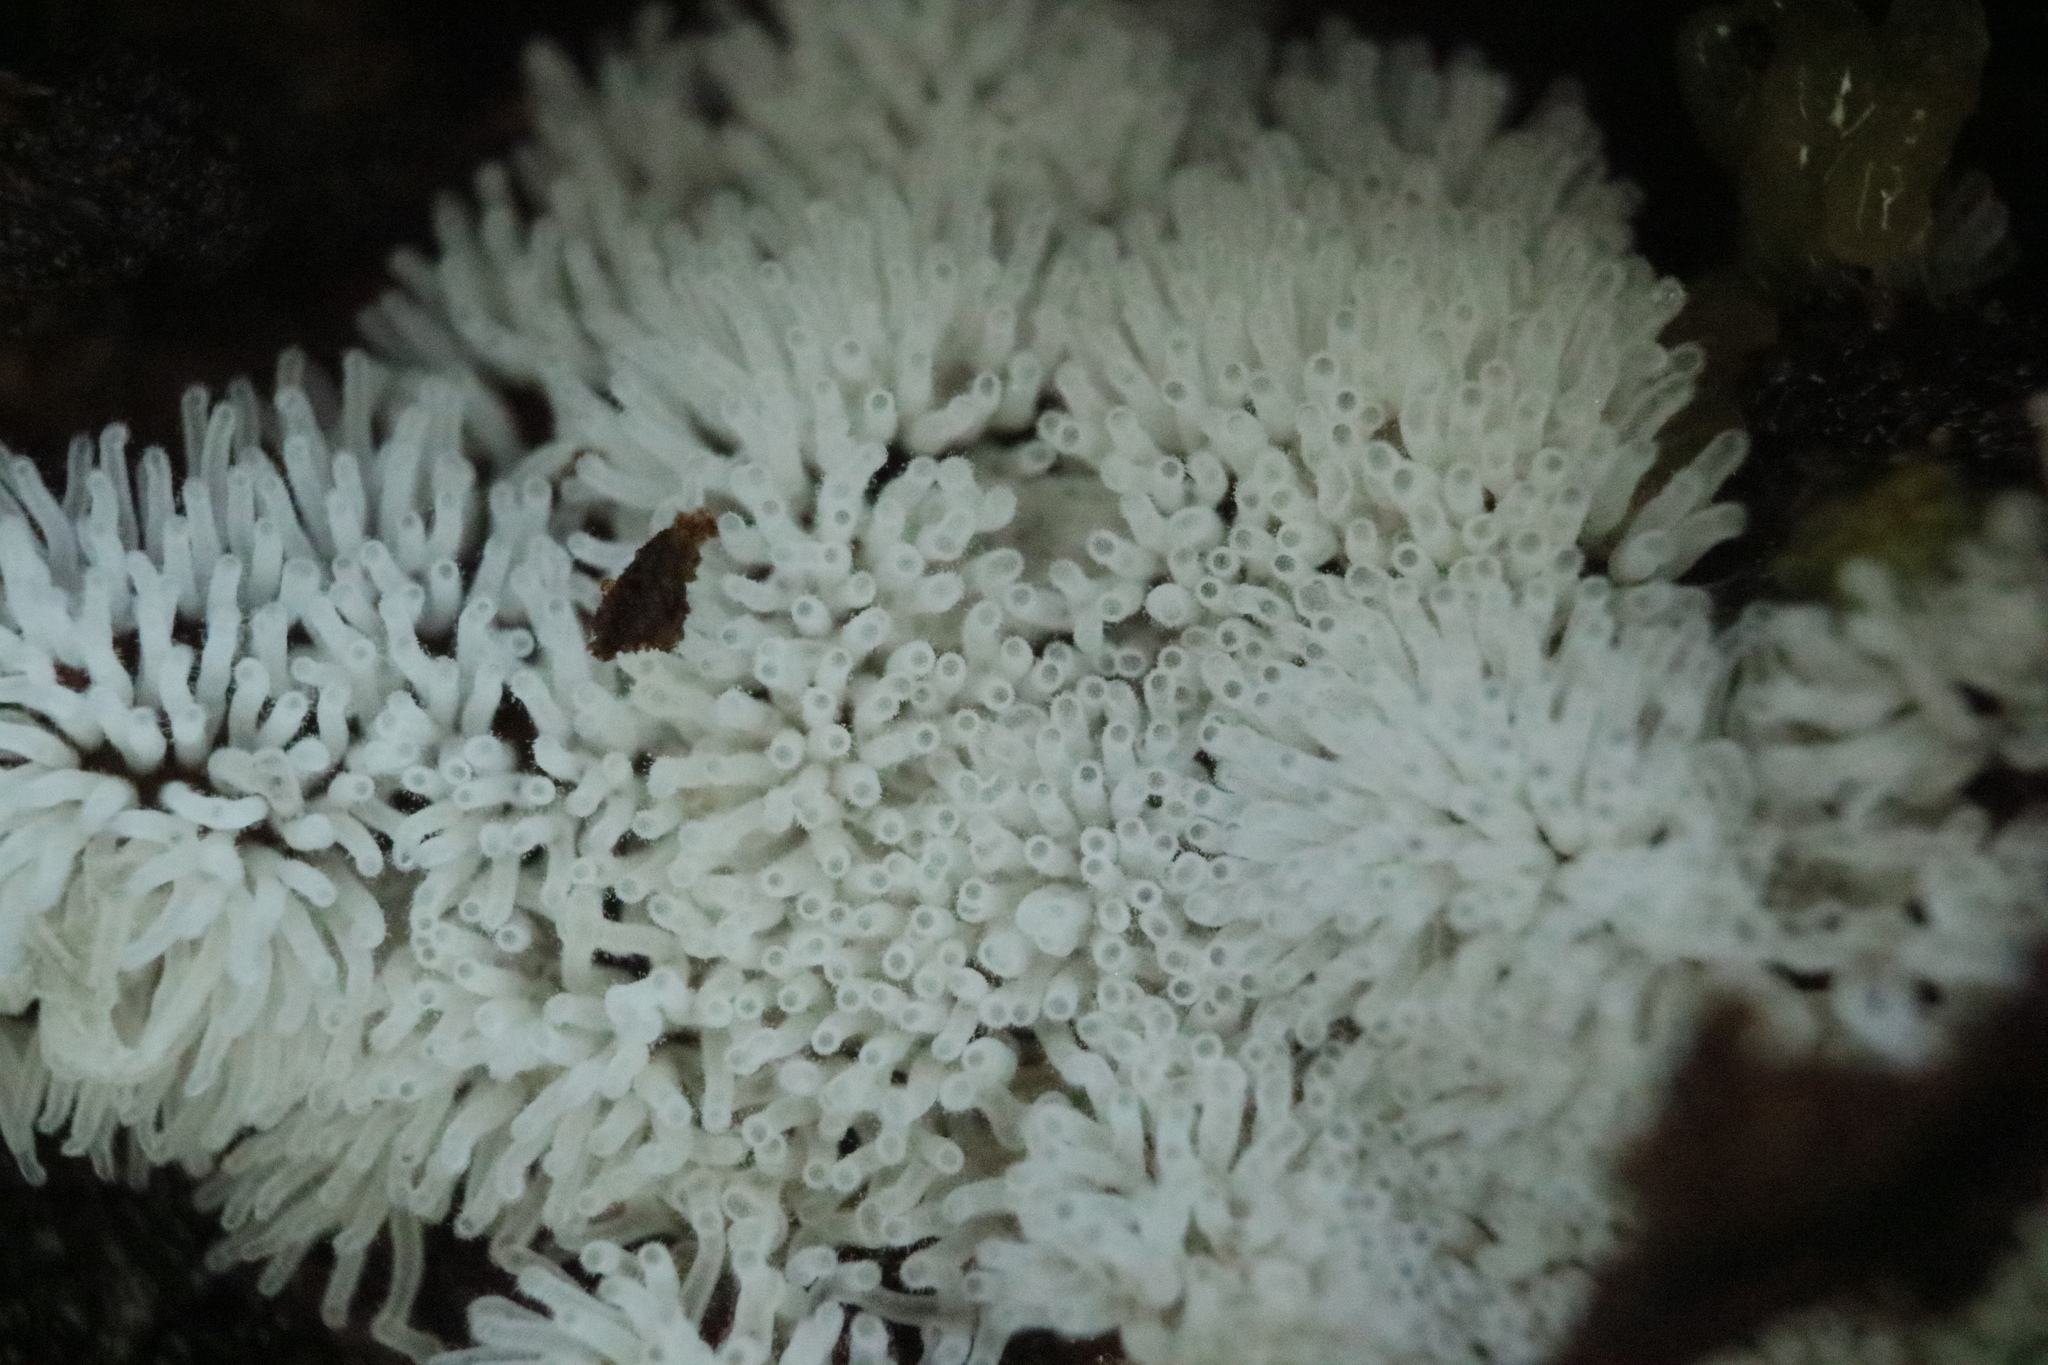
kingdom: Protozoa
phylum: Mycetozoa
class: Protosteliomycetes
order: Ceratiomyxales
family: Ceratiomyxaceae
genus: Ceratiomyxa
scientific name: Ceratiomyxa fruticulosa
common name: Honeycomb coral slime mold
